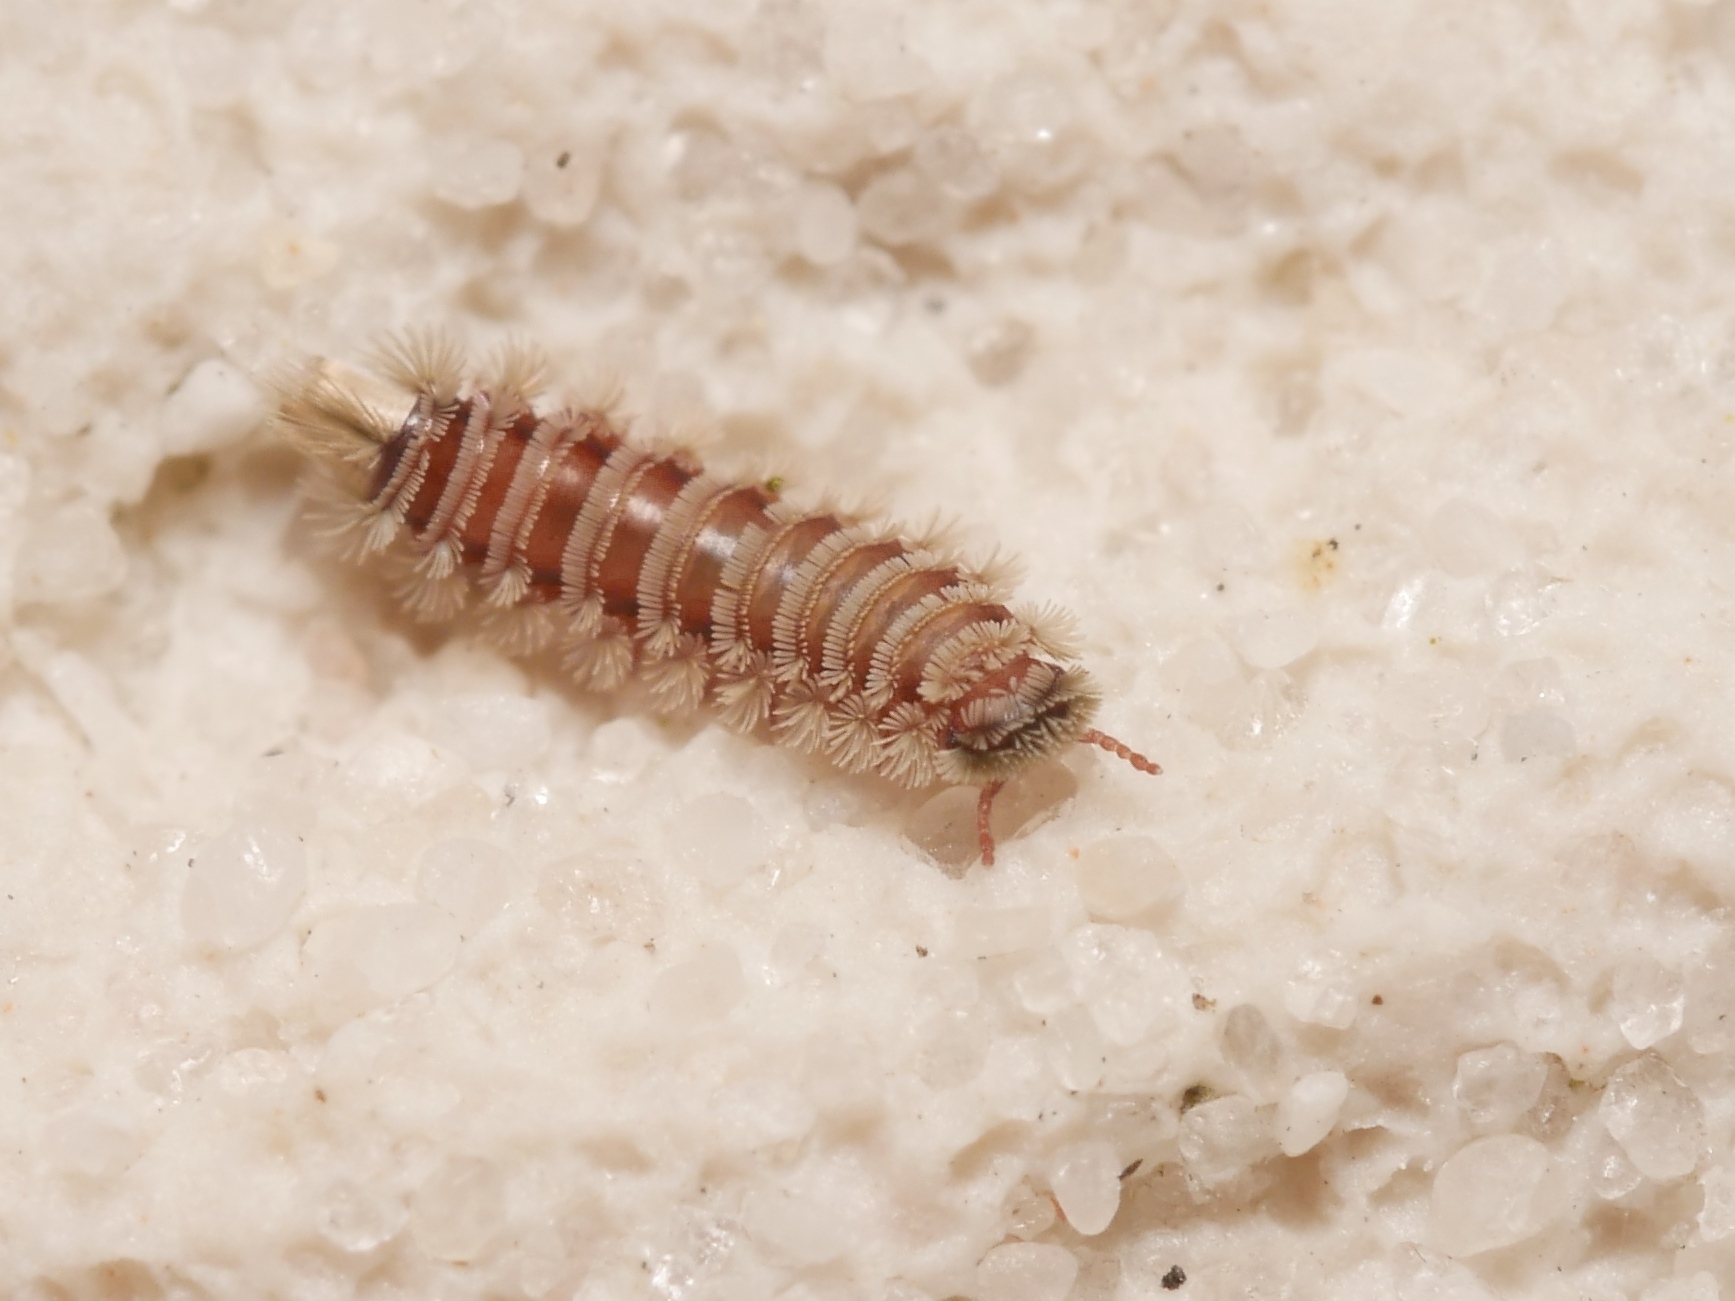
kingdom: Animalia
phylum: Arthropoda
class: Diplopoda
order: Polyxenida
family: Polyxenidae
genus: Polyxenus
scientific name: Polyxenus lagurus
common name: Bristly millipede
